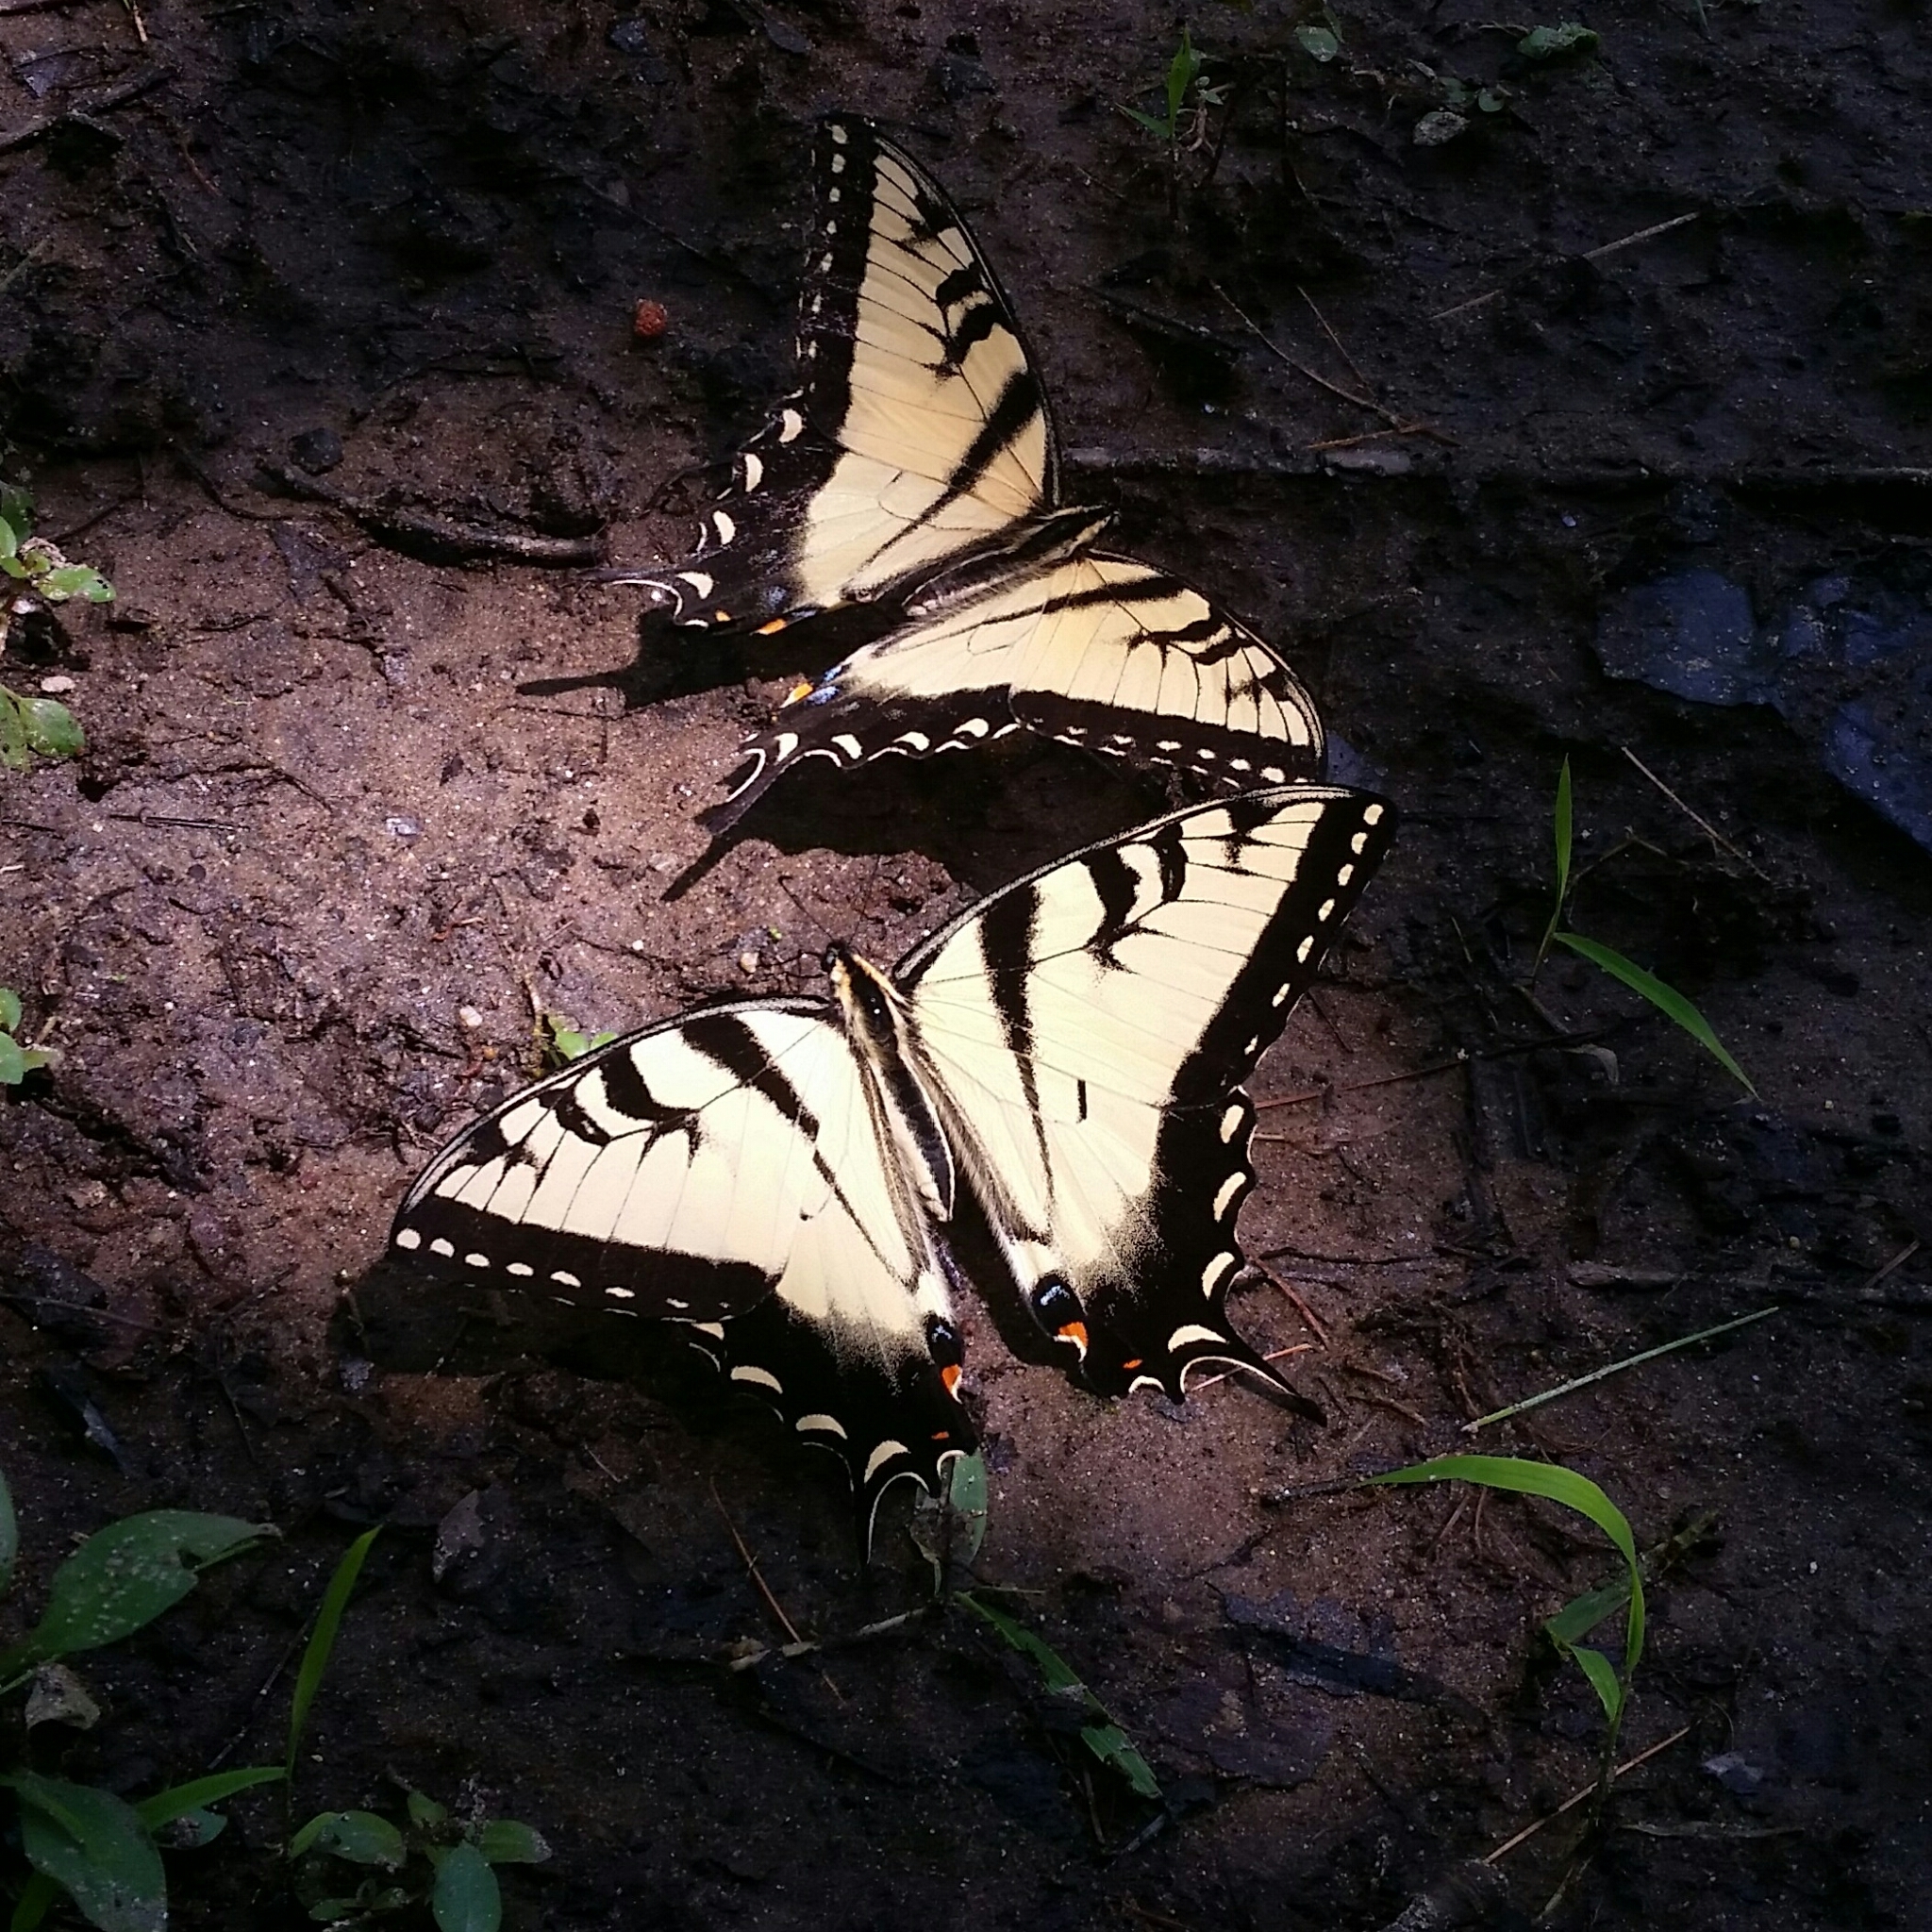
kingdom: Animalia
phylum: Arthropoda
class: Insecta
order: Lepidoptera
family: Papilionidae
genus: Papilio
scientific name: Papilio glaucus
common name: Tiger swallowtail
